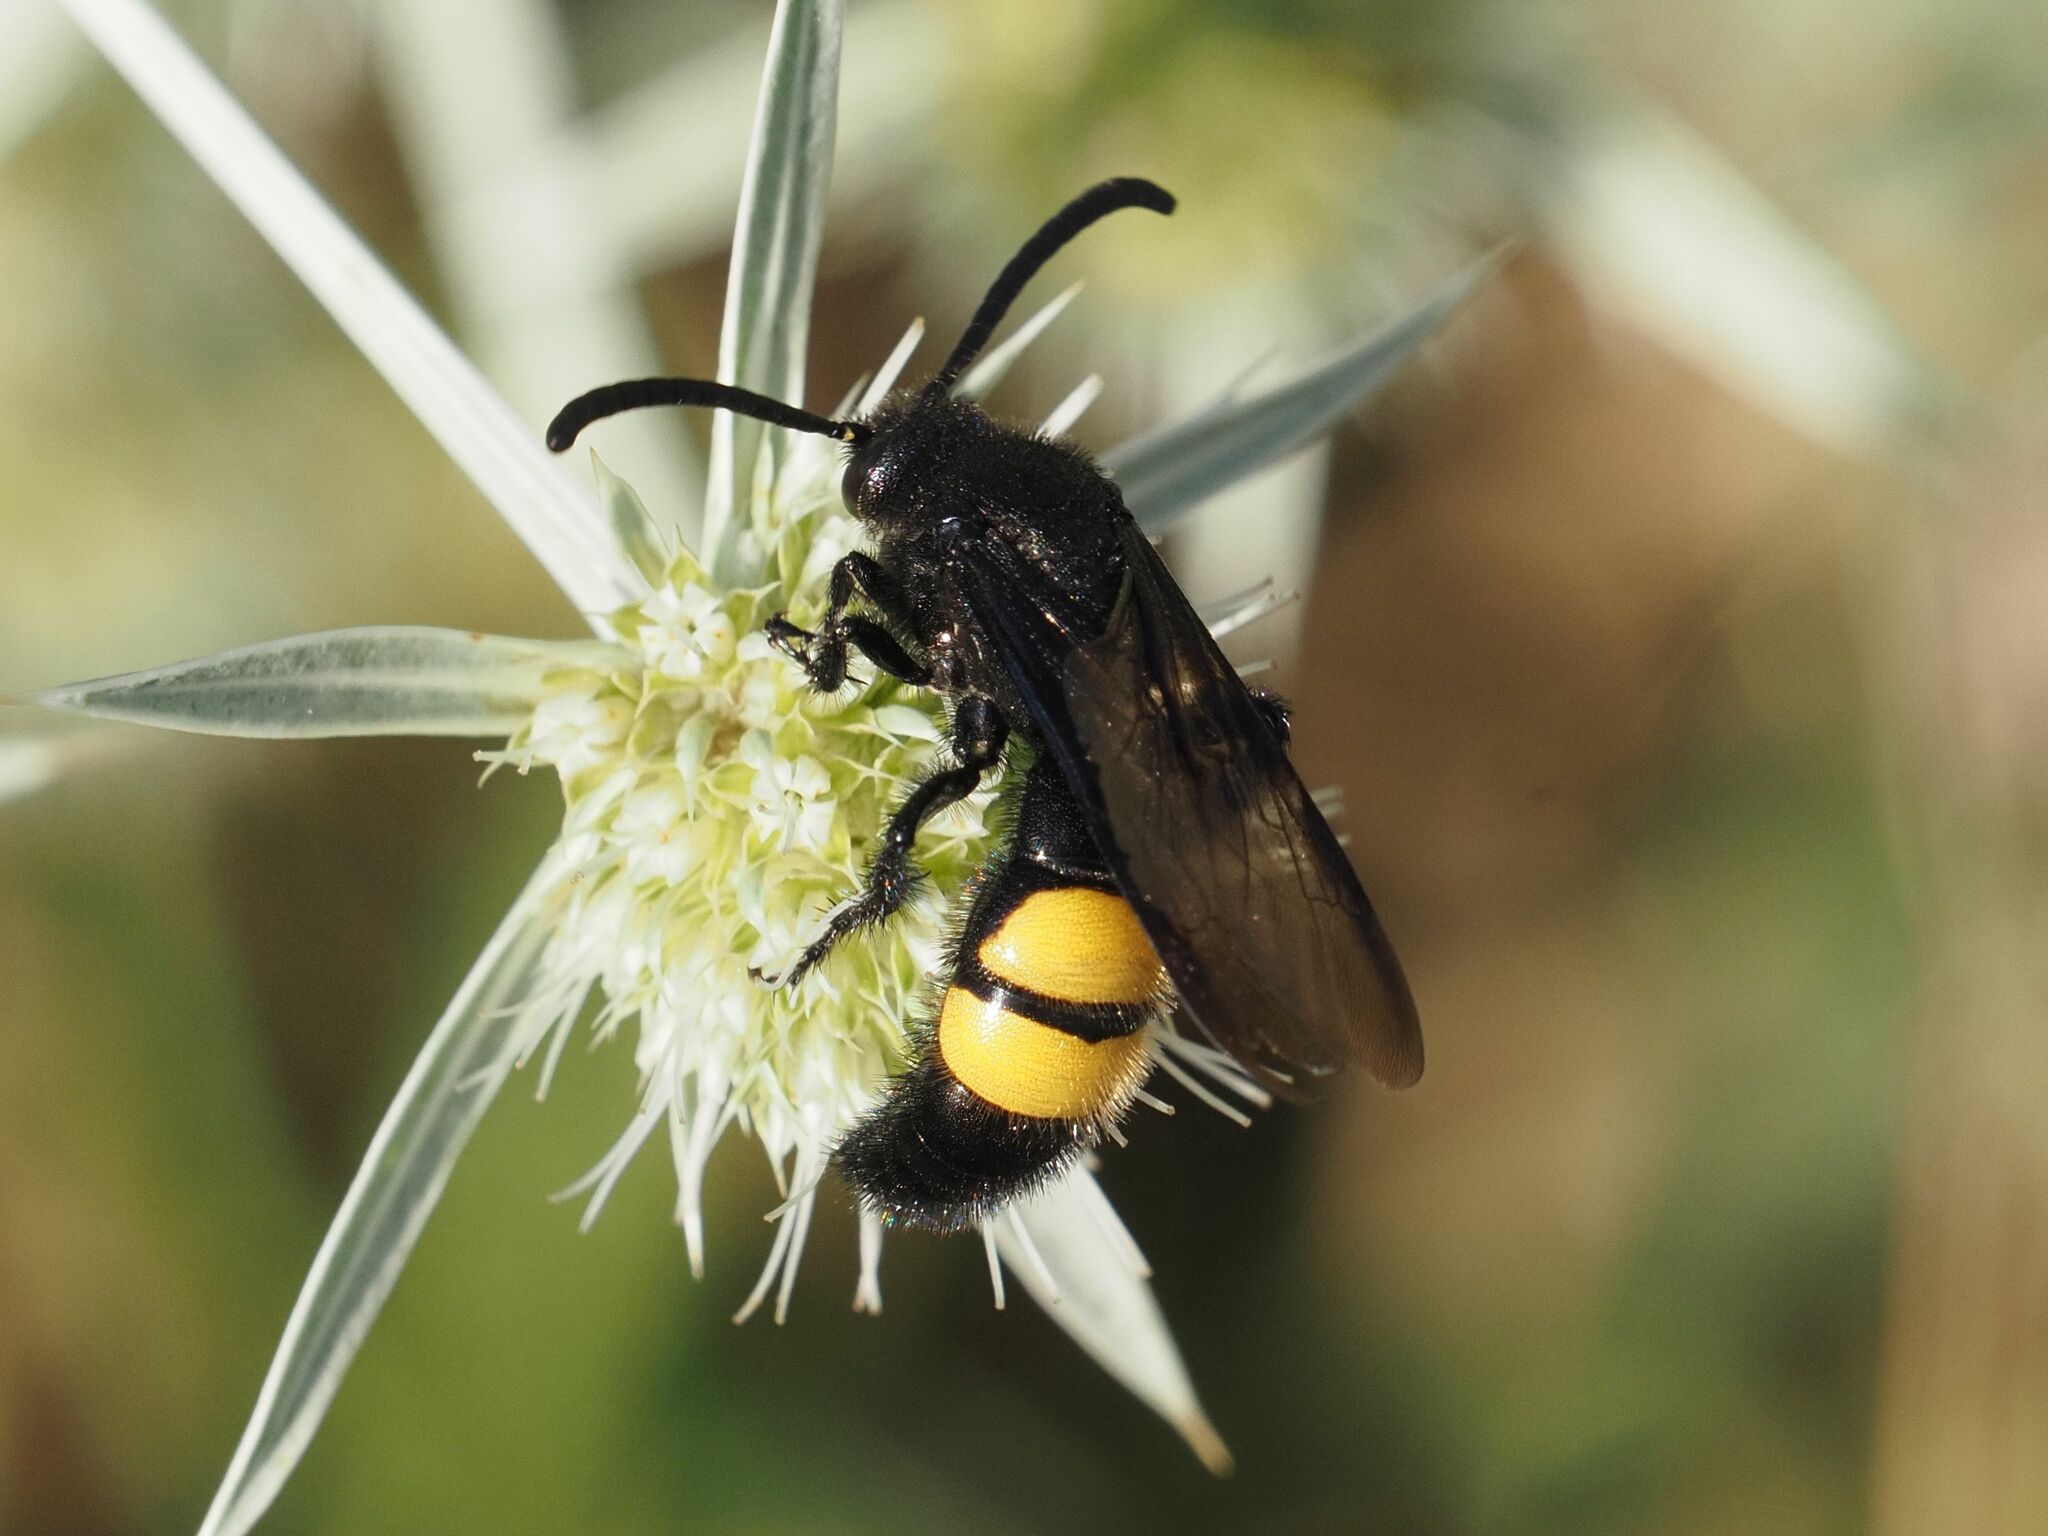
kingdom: Animalia
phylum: Arthropoda
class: Insecta
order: Hymenoptera
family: Scoliidae
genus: Scolia
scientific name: Scolia hirta
